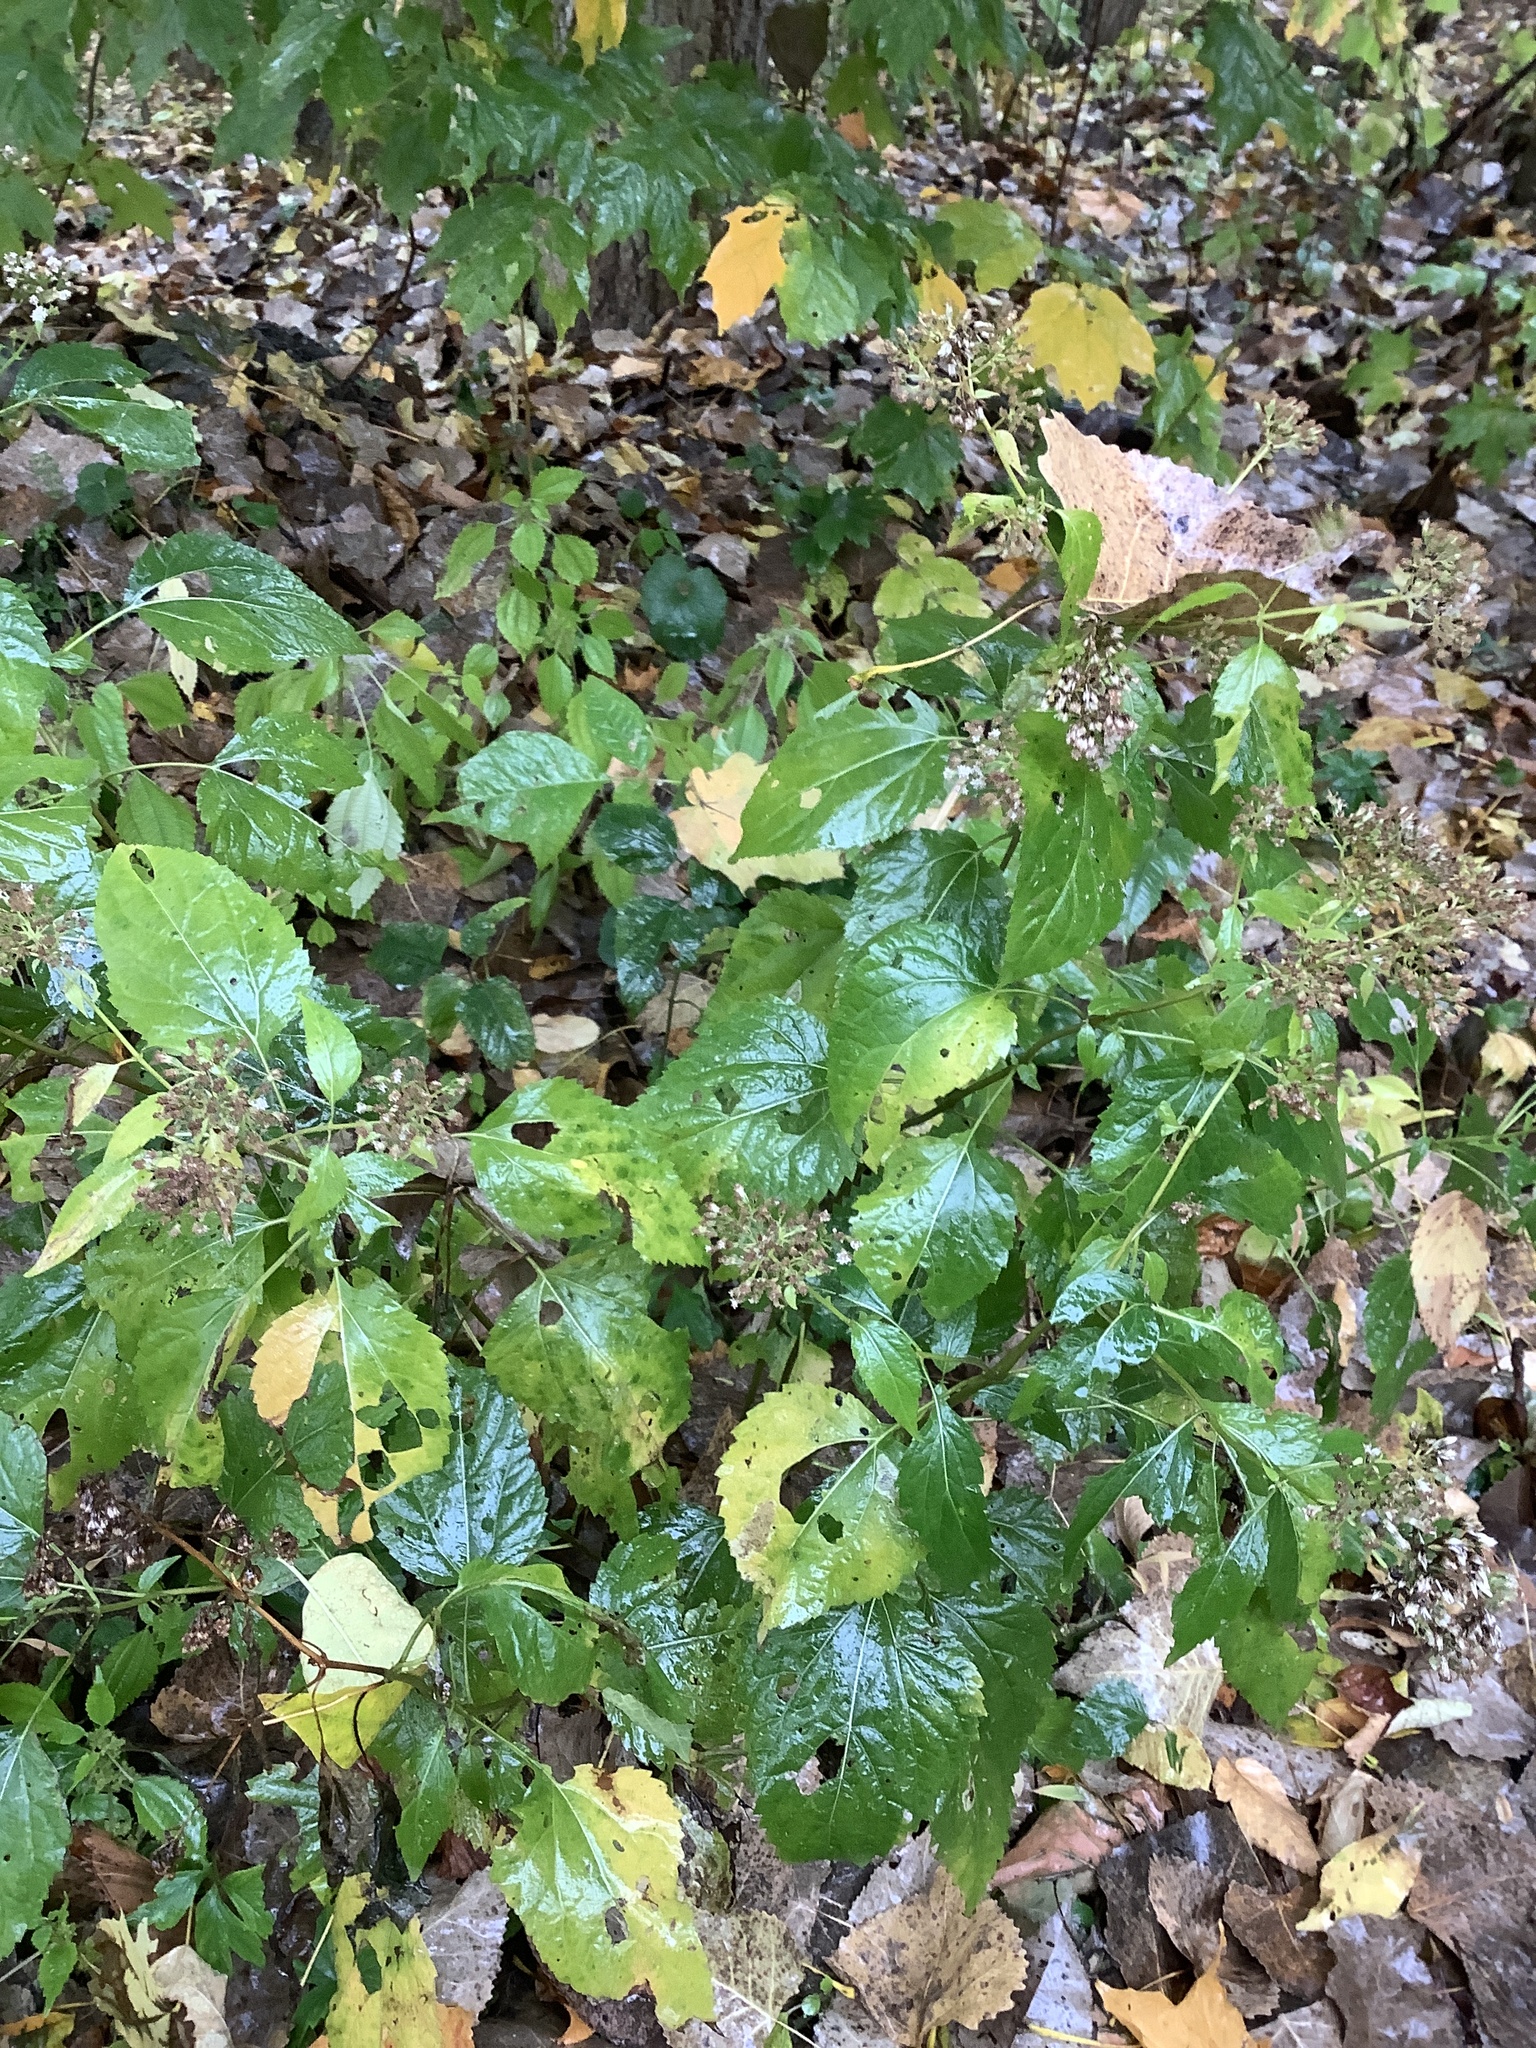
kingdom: Plantae
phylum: Tracheophyta
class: Magnoliopsida
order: Asterales
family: Asteraceae
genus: Ageratina
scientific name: Ageratina altissima
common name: White snakeroot
